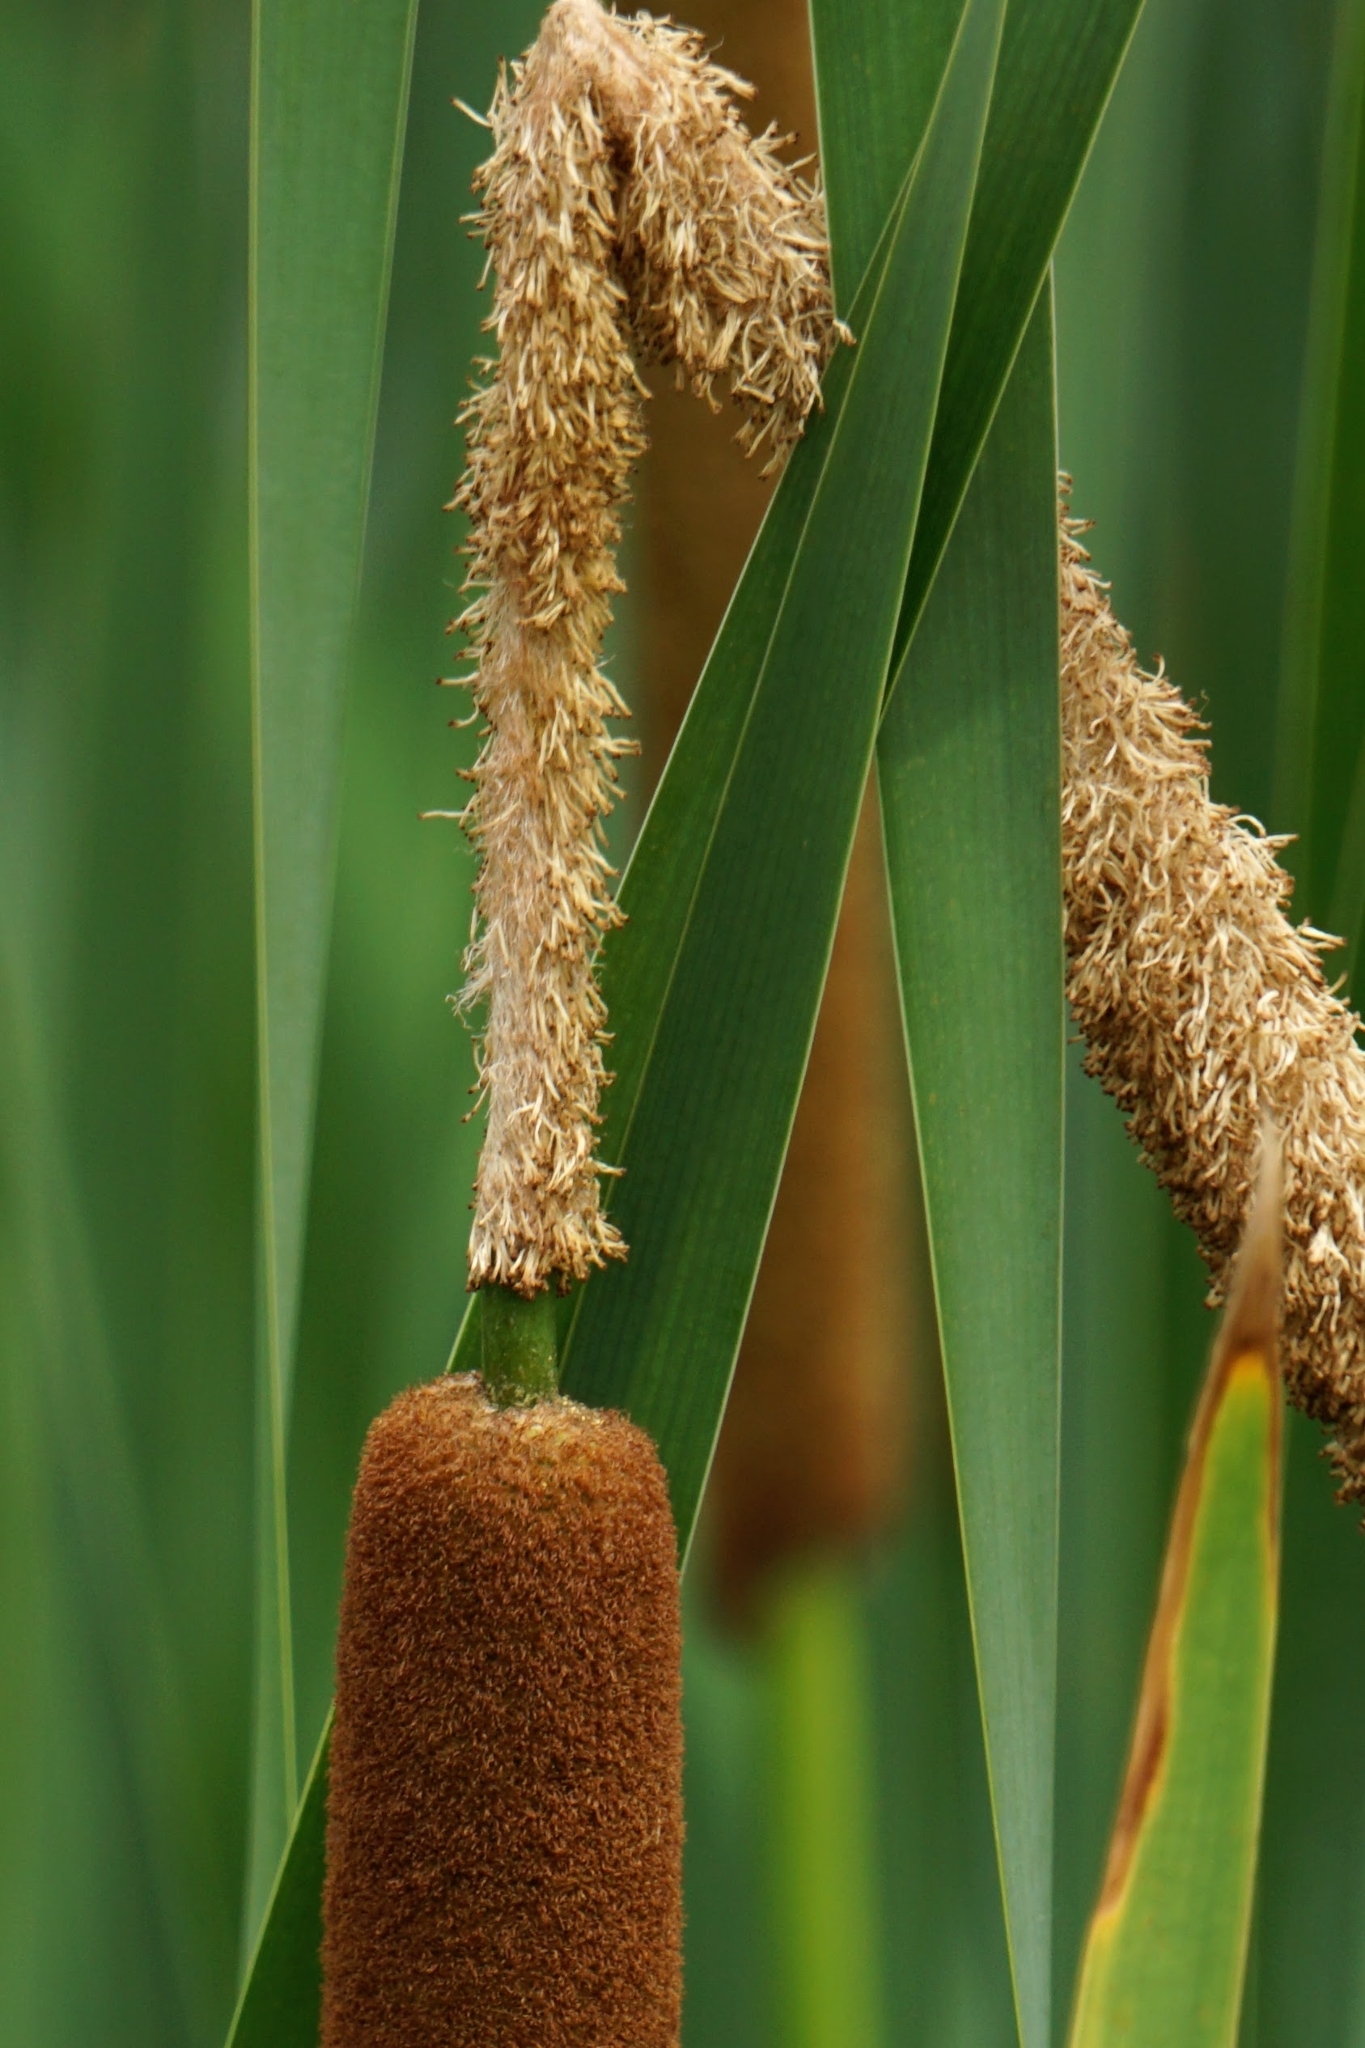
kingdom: Plantae
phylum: Tracheophyta
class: Liliopsida
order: Poales
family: Typhaceae
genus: Typha
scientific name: Typha glauca
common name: Blue cattail
